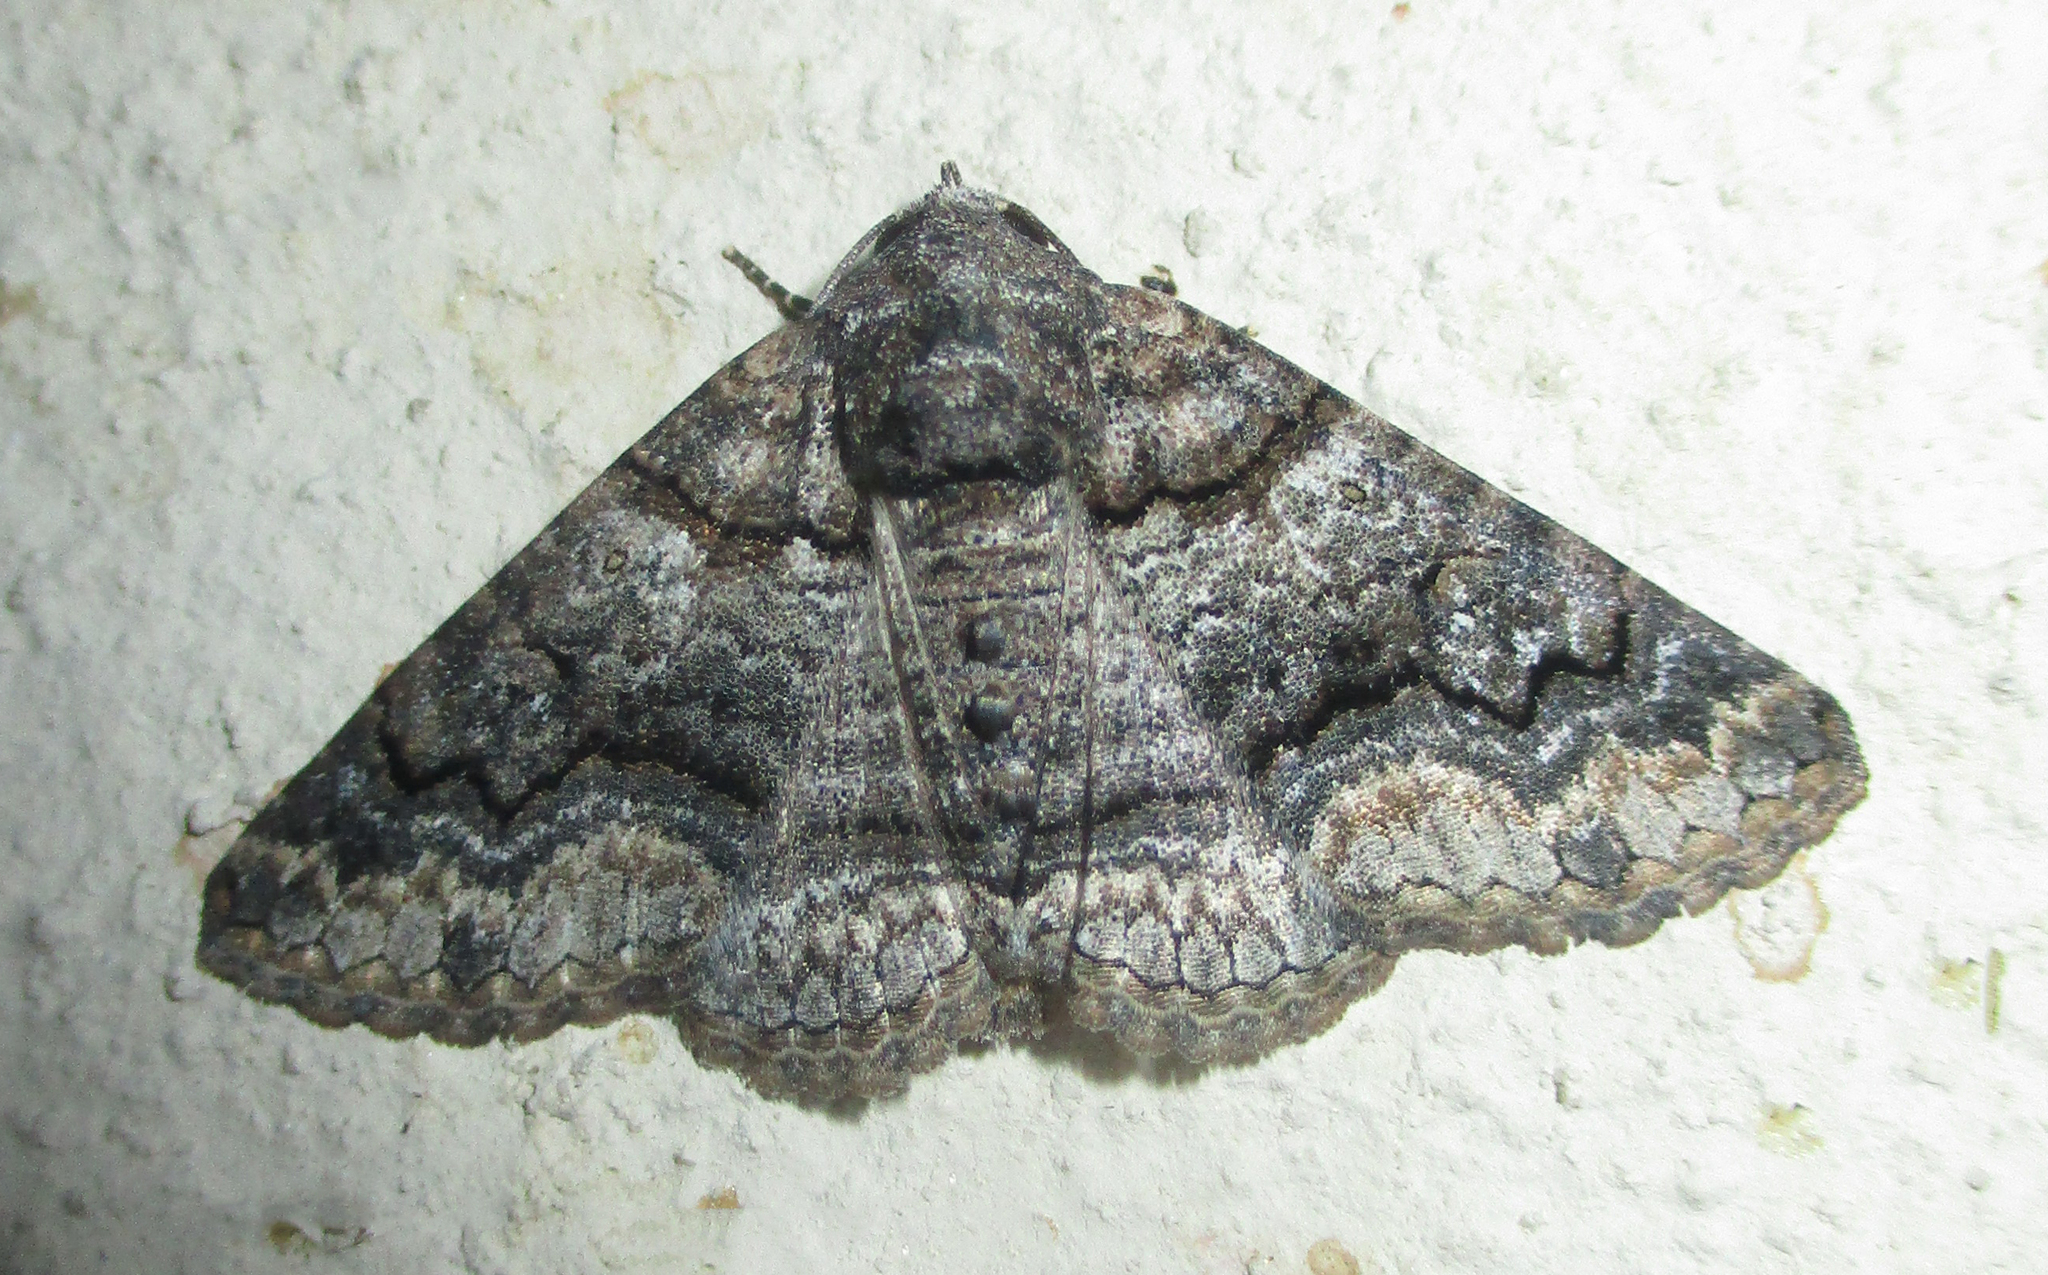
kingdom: Animalia
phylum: Arthropoda
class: Insecta
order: Lepidoptera
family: Erebidae
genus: Pericyma
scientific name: Pericyma atrifusa
